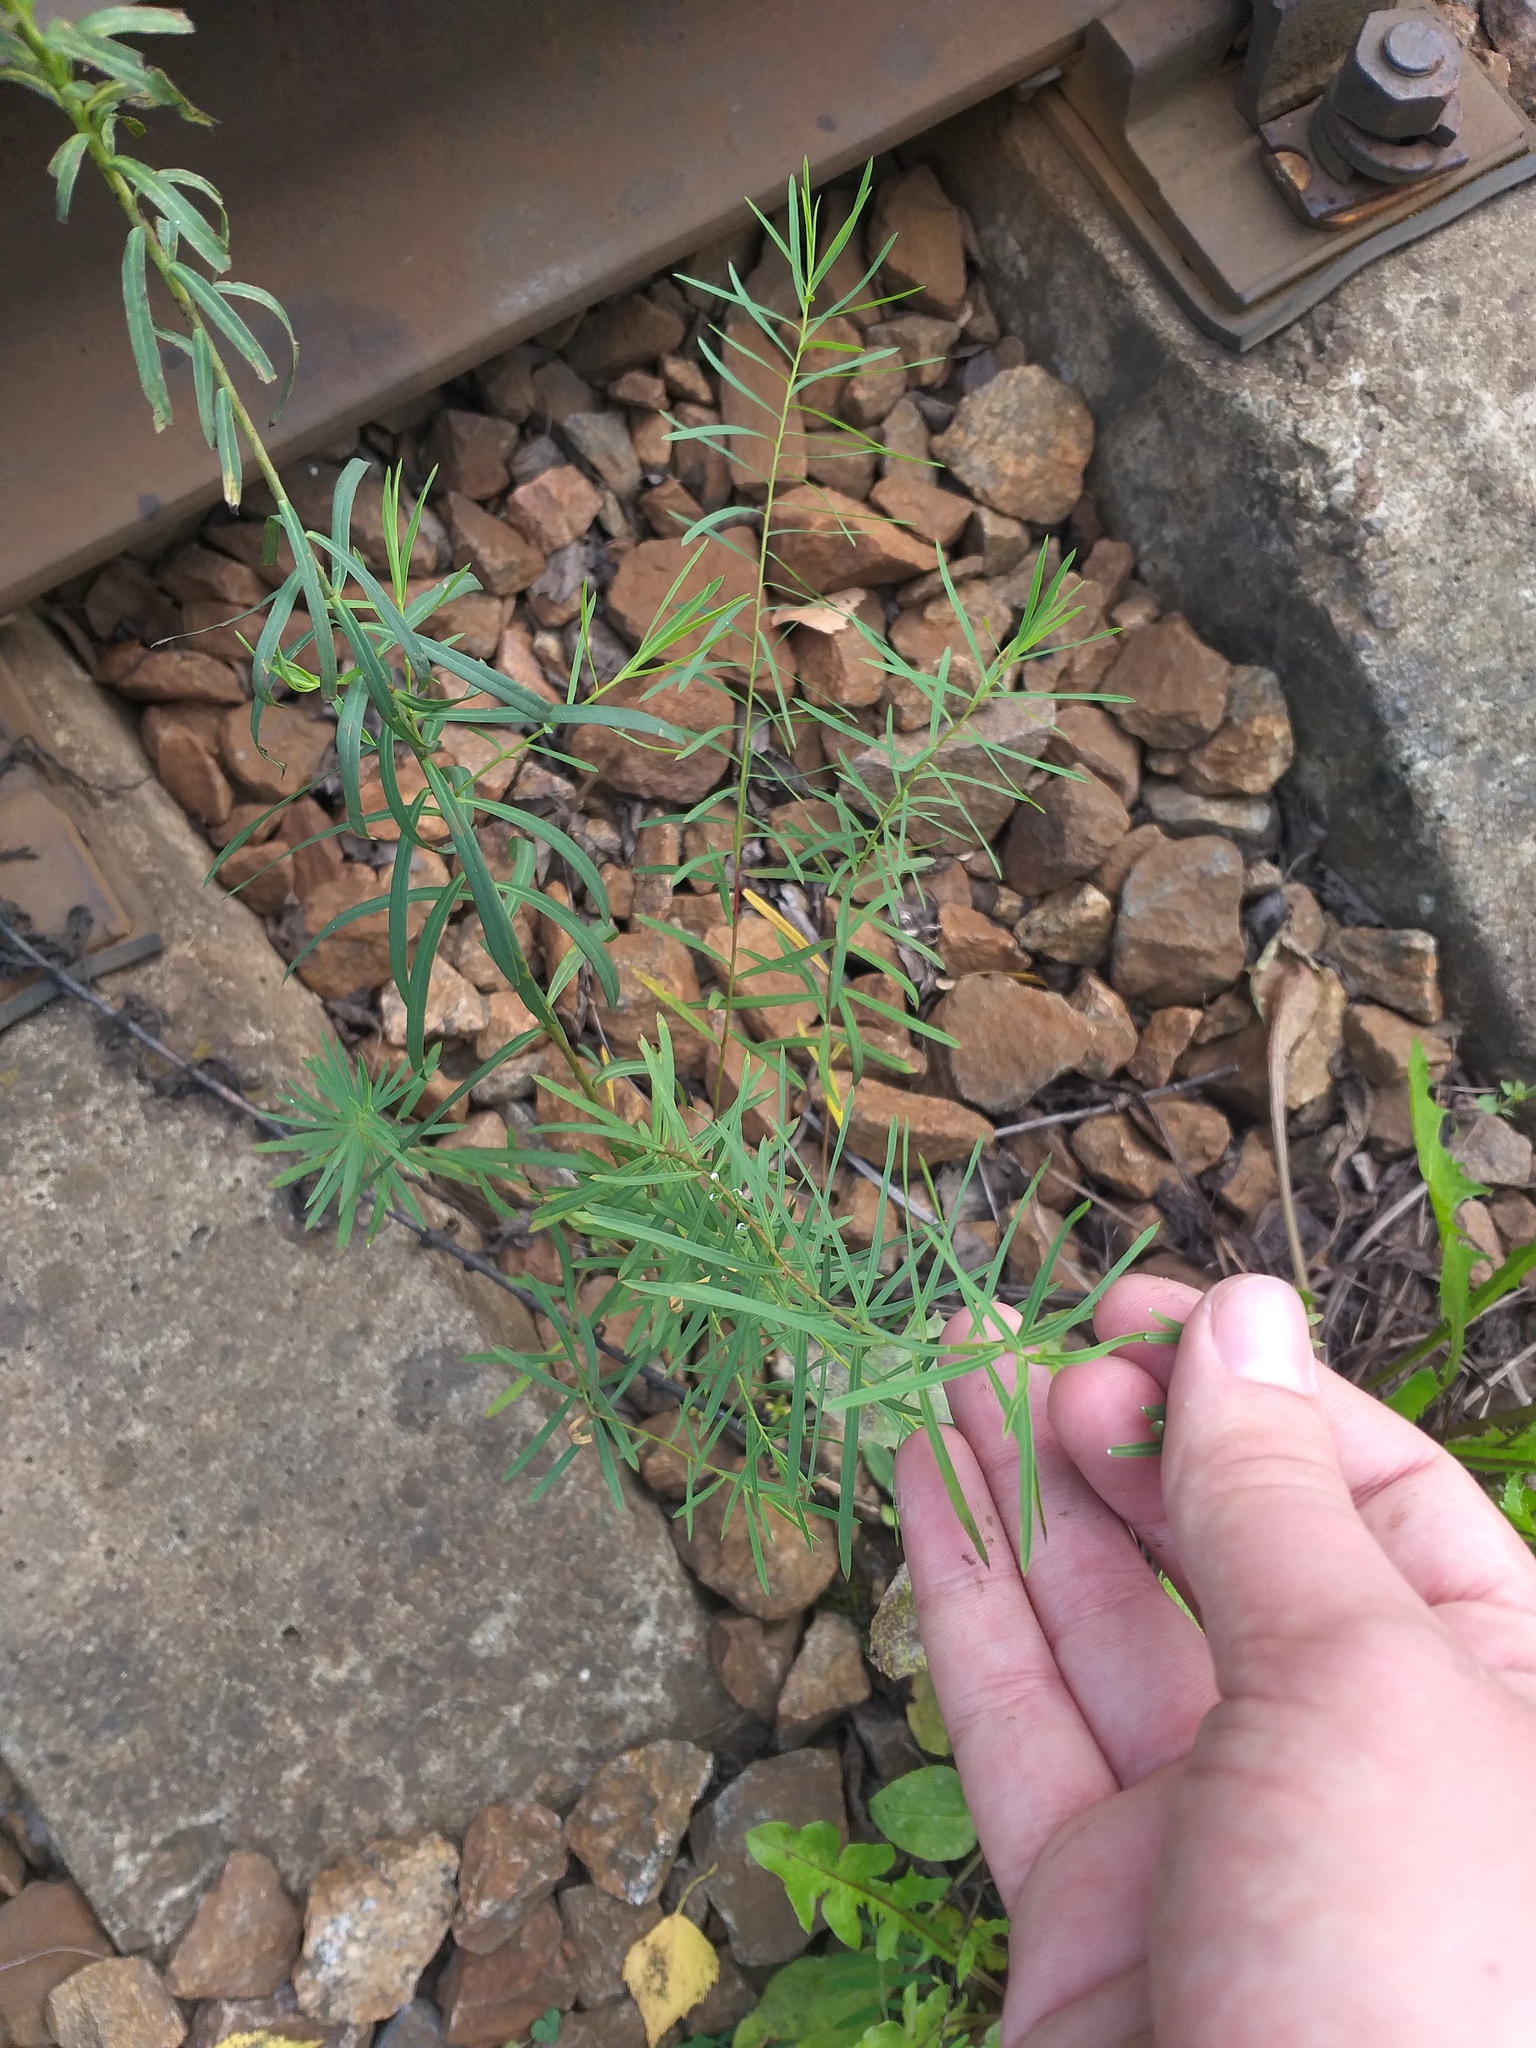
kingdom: Plantae
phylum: Tracheophyta
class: Magnoliopsida
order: Malpighiales
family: Euphorbiaceae
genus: Euphorbia
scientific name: Euphorbia virgata
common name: Leafy spurge
